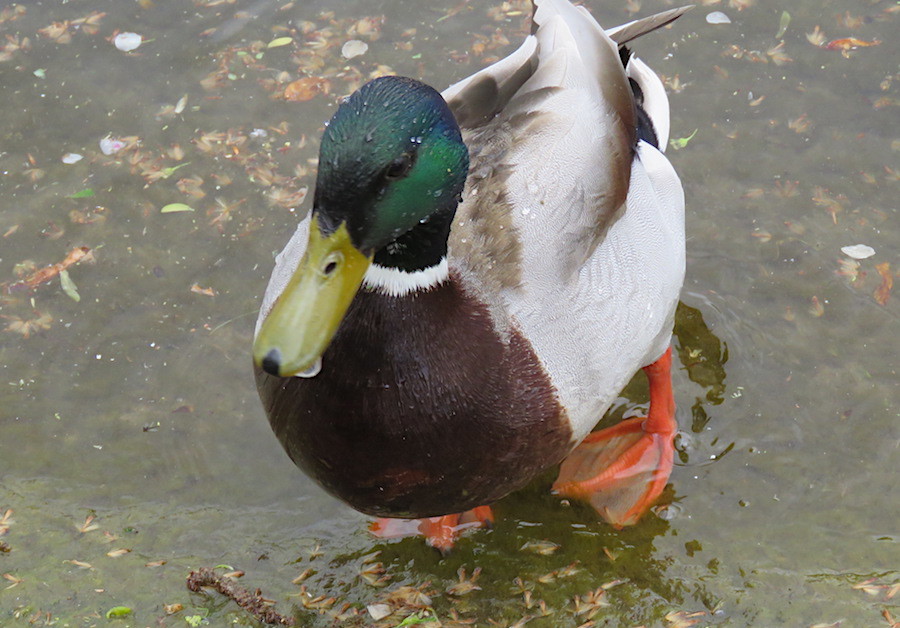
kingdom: Animalia
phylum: Chordata
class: Aves
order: Anseriformes
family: Anatidae
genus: Anas
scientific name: Anas platyrhynchos
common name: Mallard
